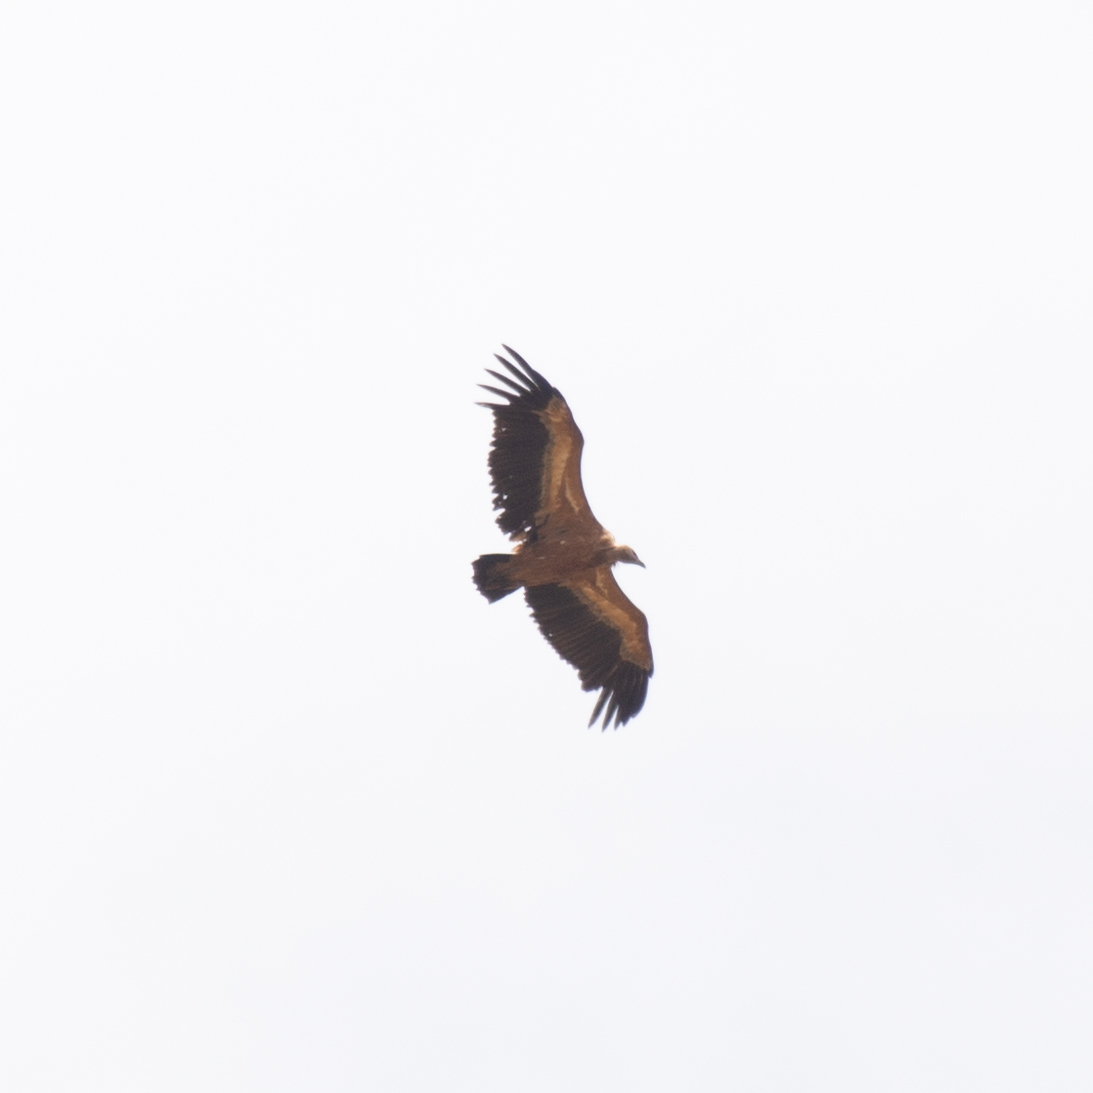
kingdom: Animalia
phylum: Chordata
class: Aves
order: Accipitriformes
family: Accipitridae
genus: Gyps
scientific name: Gyps fulvus
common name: Griffon vulture
